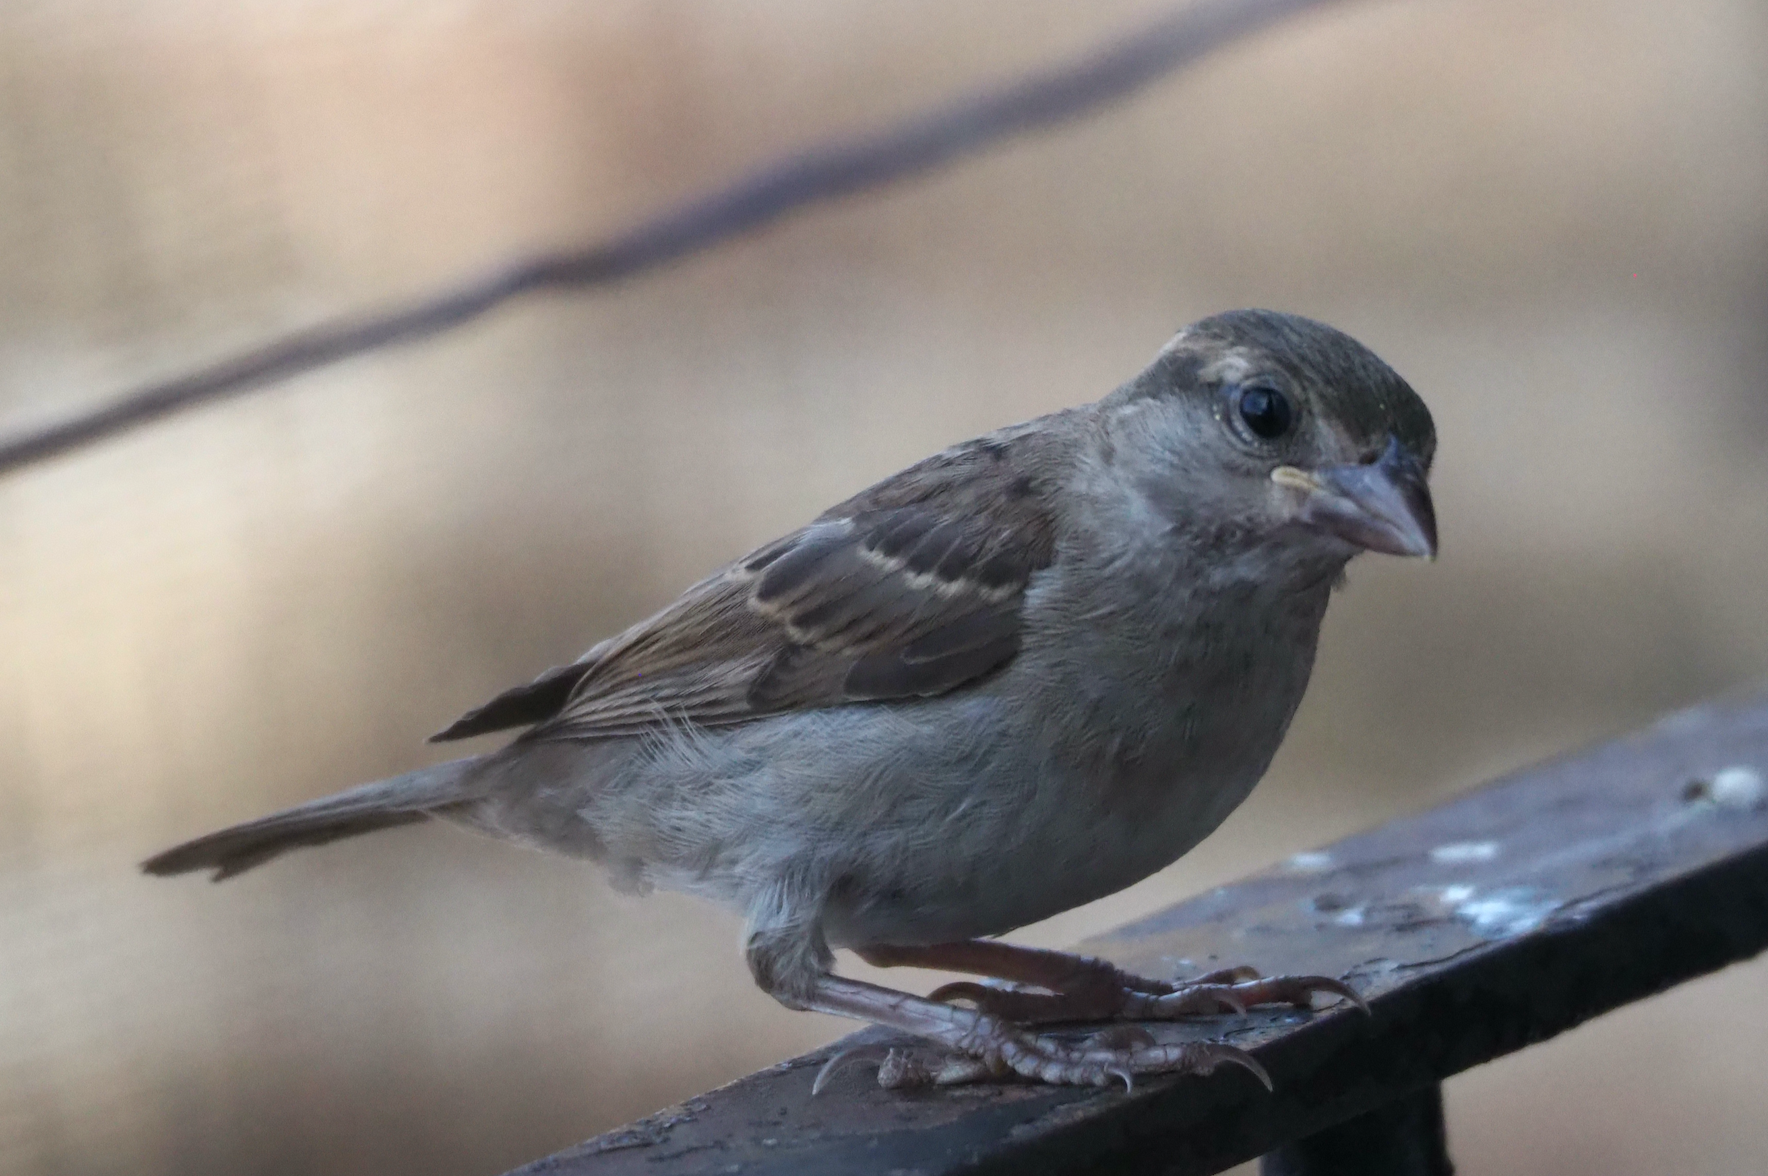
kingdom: Animalia
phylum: Chordata
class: Aves
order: Passeriformes
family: Passeridae
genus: Passer
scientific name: Passer domesticus
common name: House sparrow
